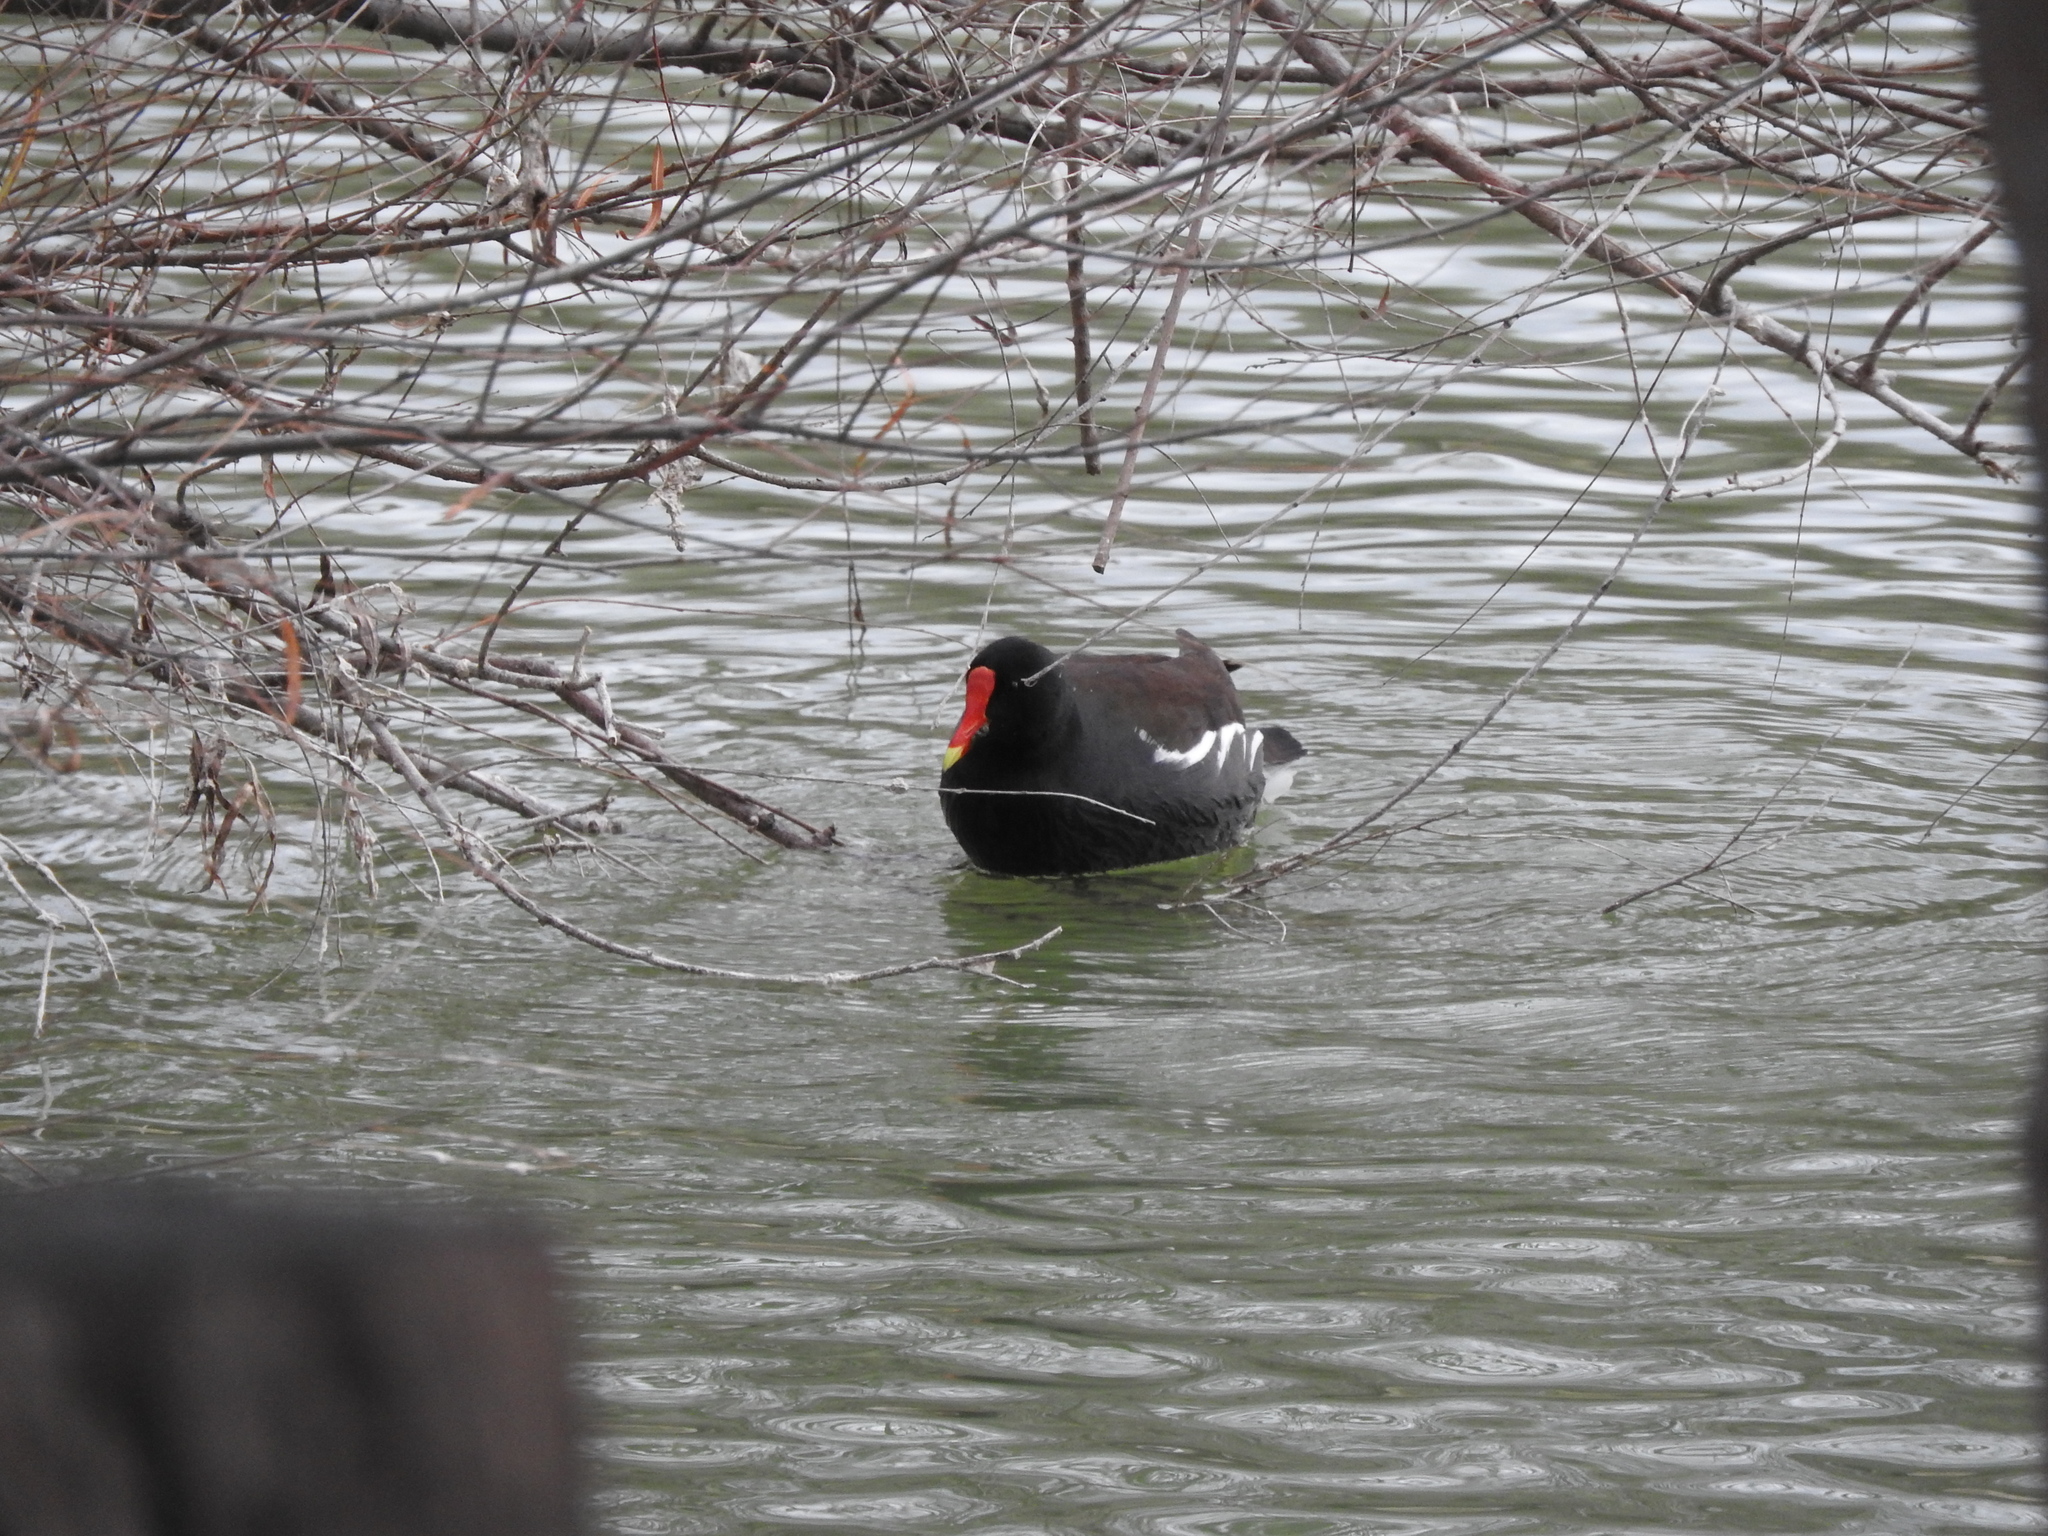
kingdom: Animalia
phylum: Chordata
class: Aves
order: Gruiformes
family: Rallidae
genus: Gallinula
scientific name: Gallinula chloropus
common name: Common moorhen
